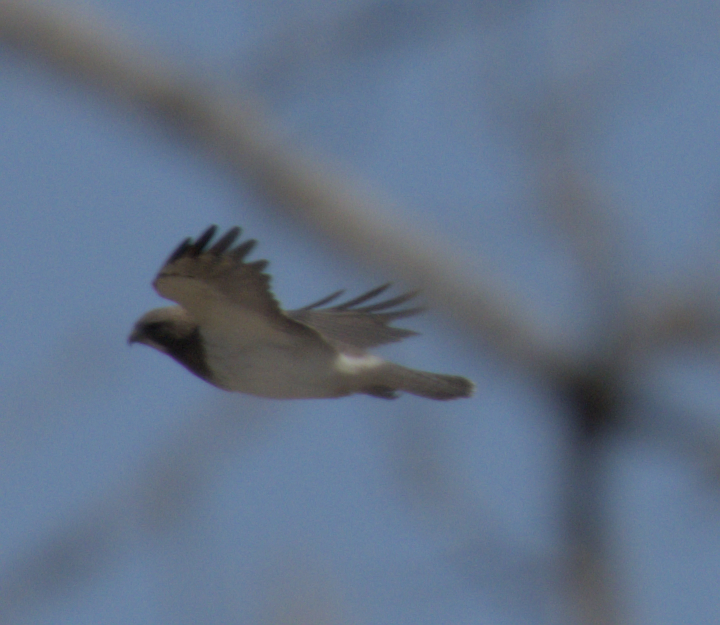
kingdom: Animalia
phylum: Chordata
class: Aves
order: Accipitriformes
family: Accipitridae
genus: Buteo
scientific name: Buteo swainsoni
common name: Swainson's hawk
